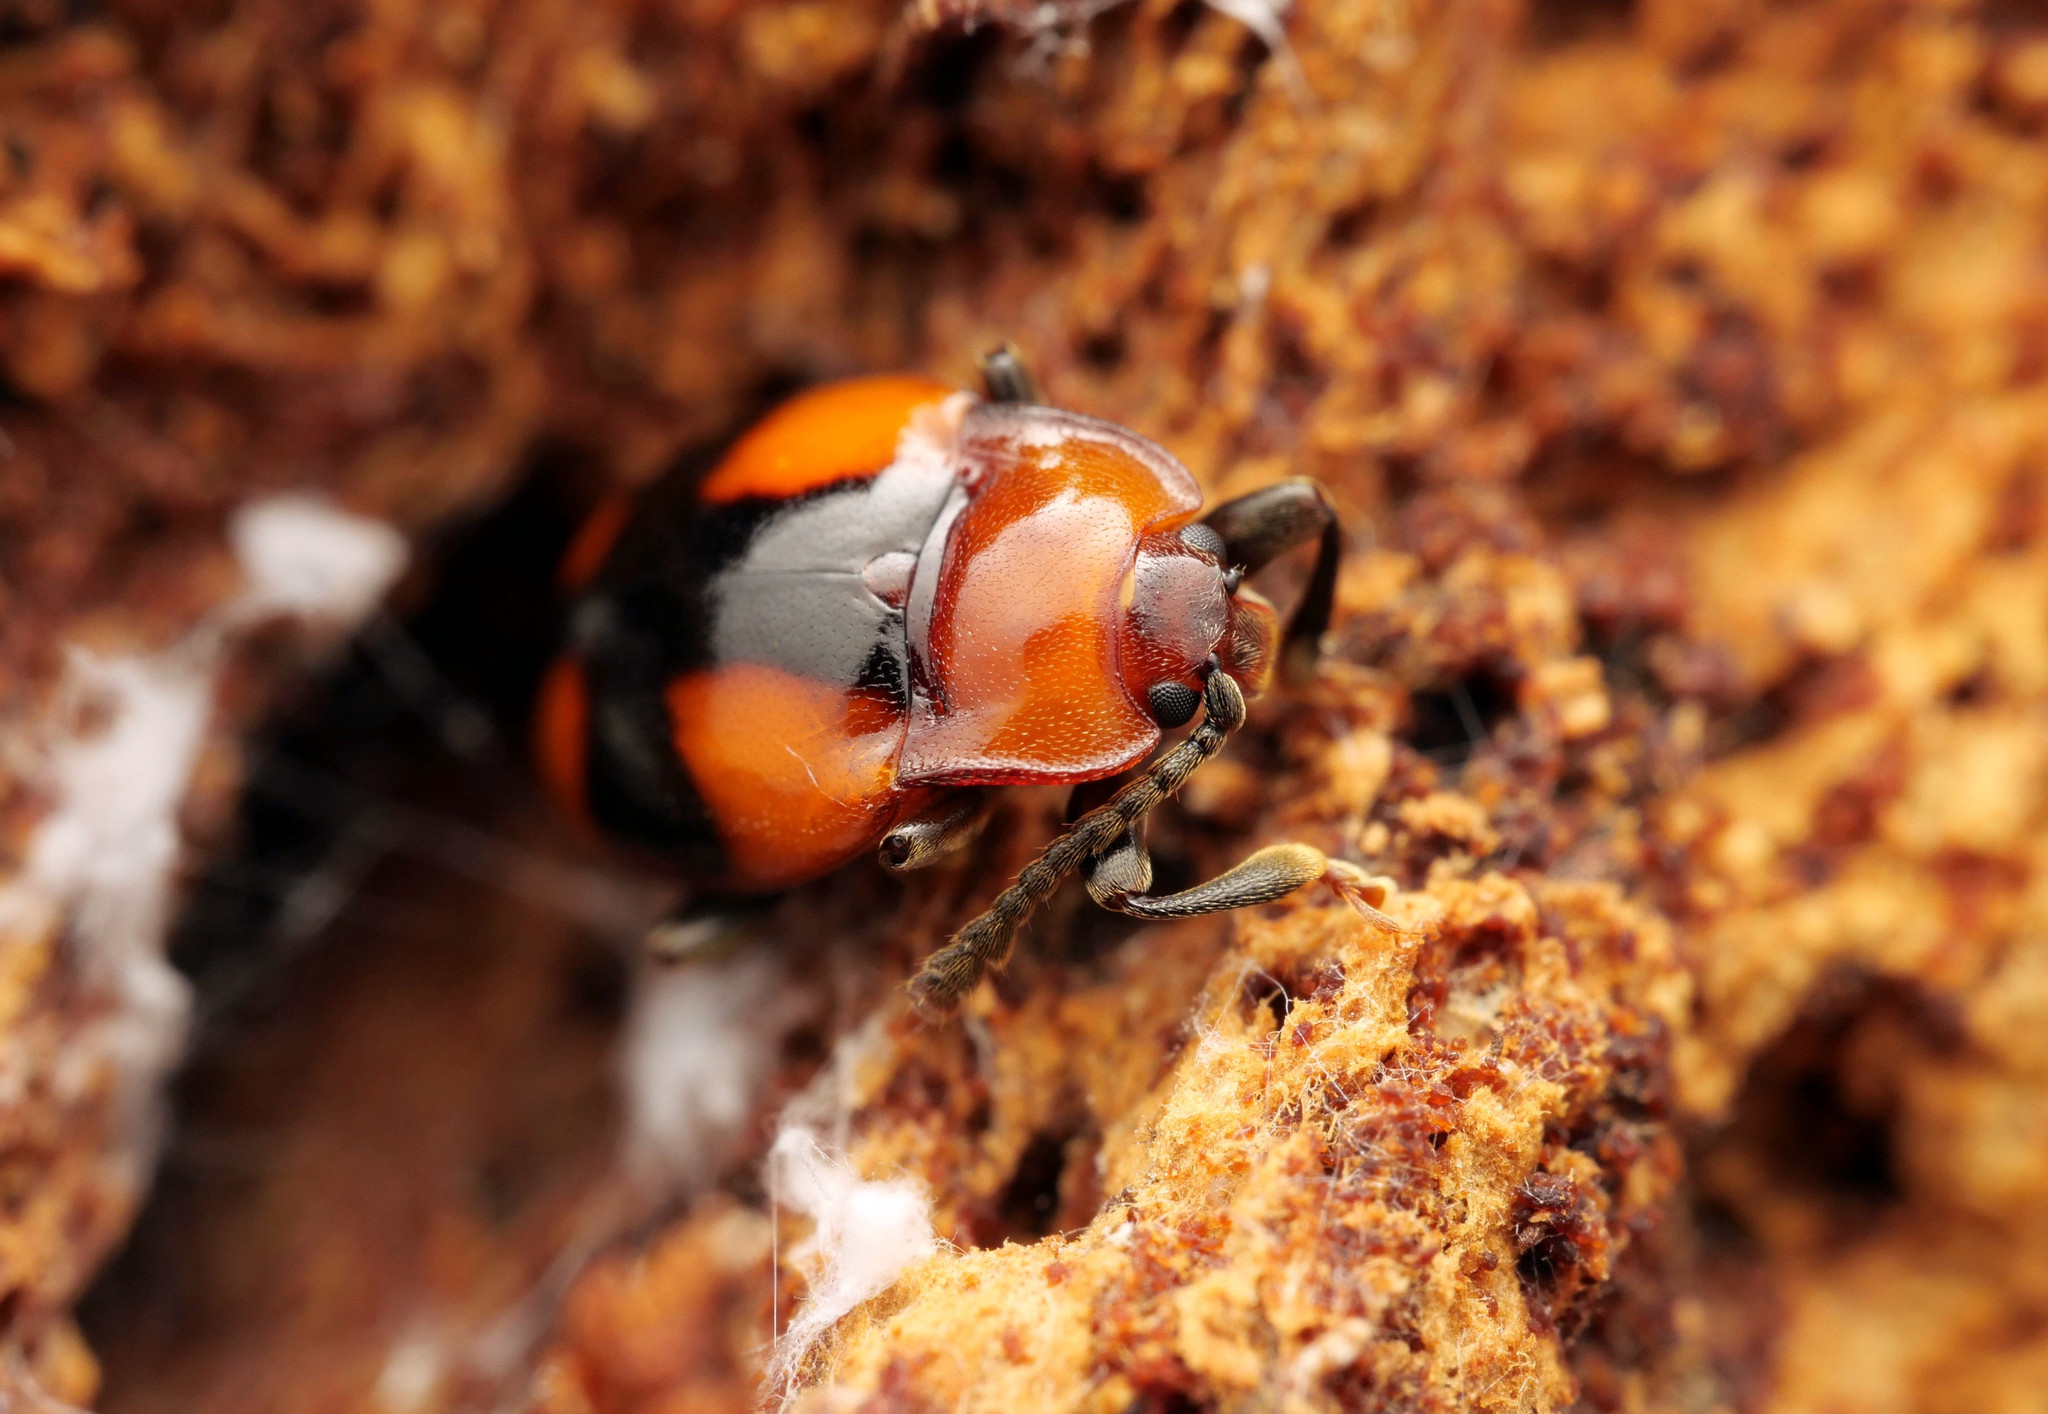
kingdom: Animalia
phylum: Arthropoda
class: Insecta
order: Coleoptera
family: Endomychidae
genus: Mycetina
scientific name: Mycetina cruciata
